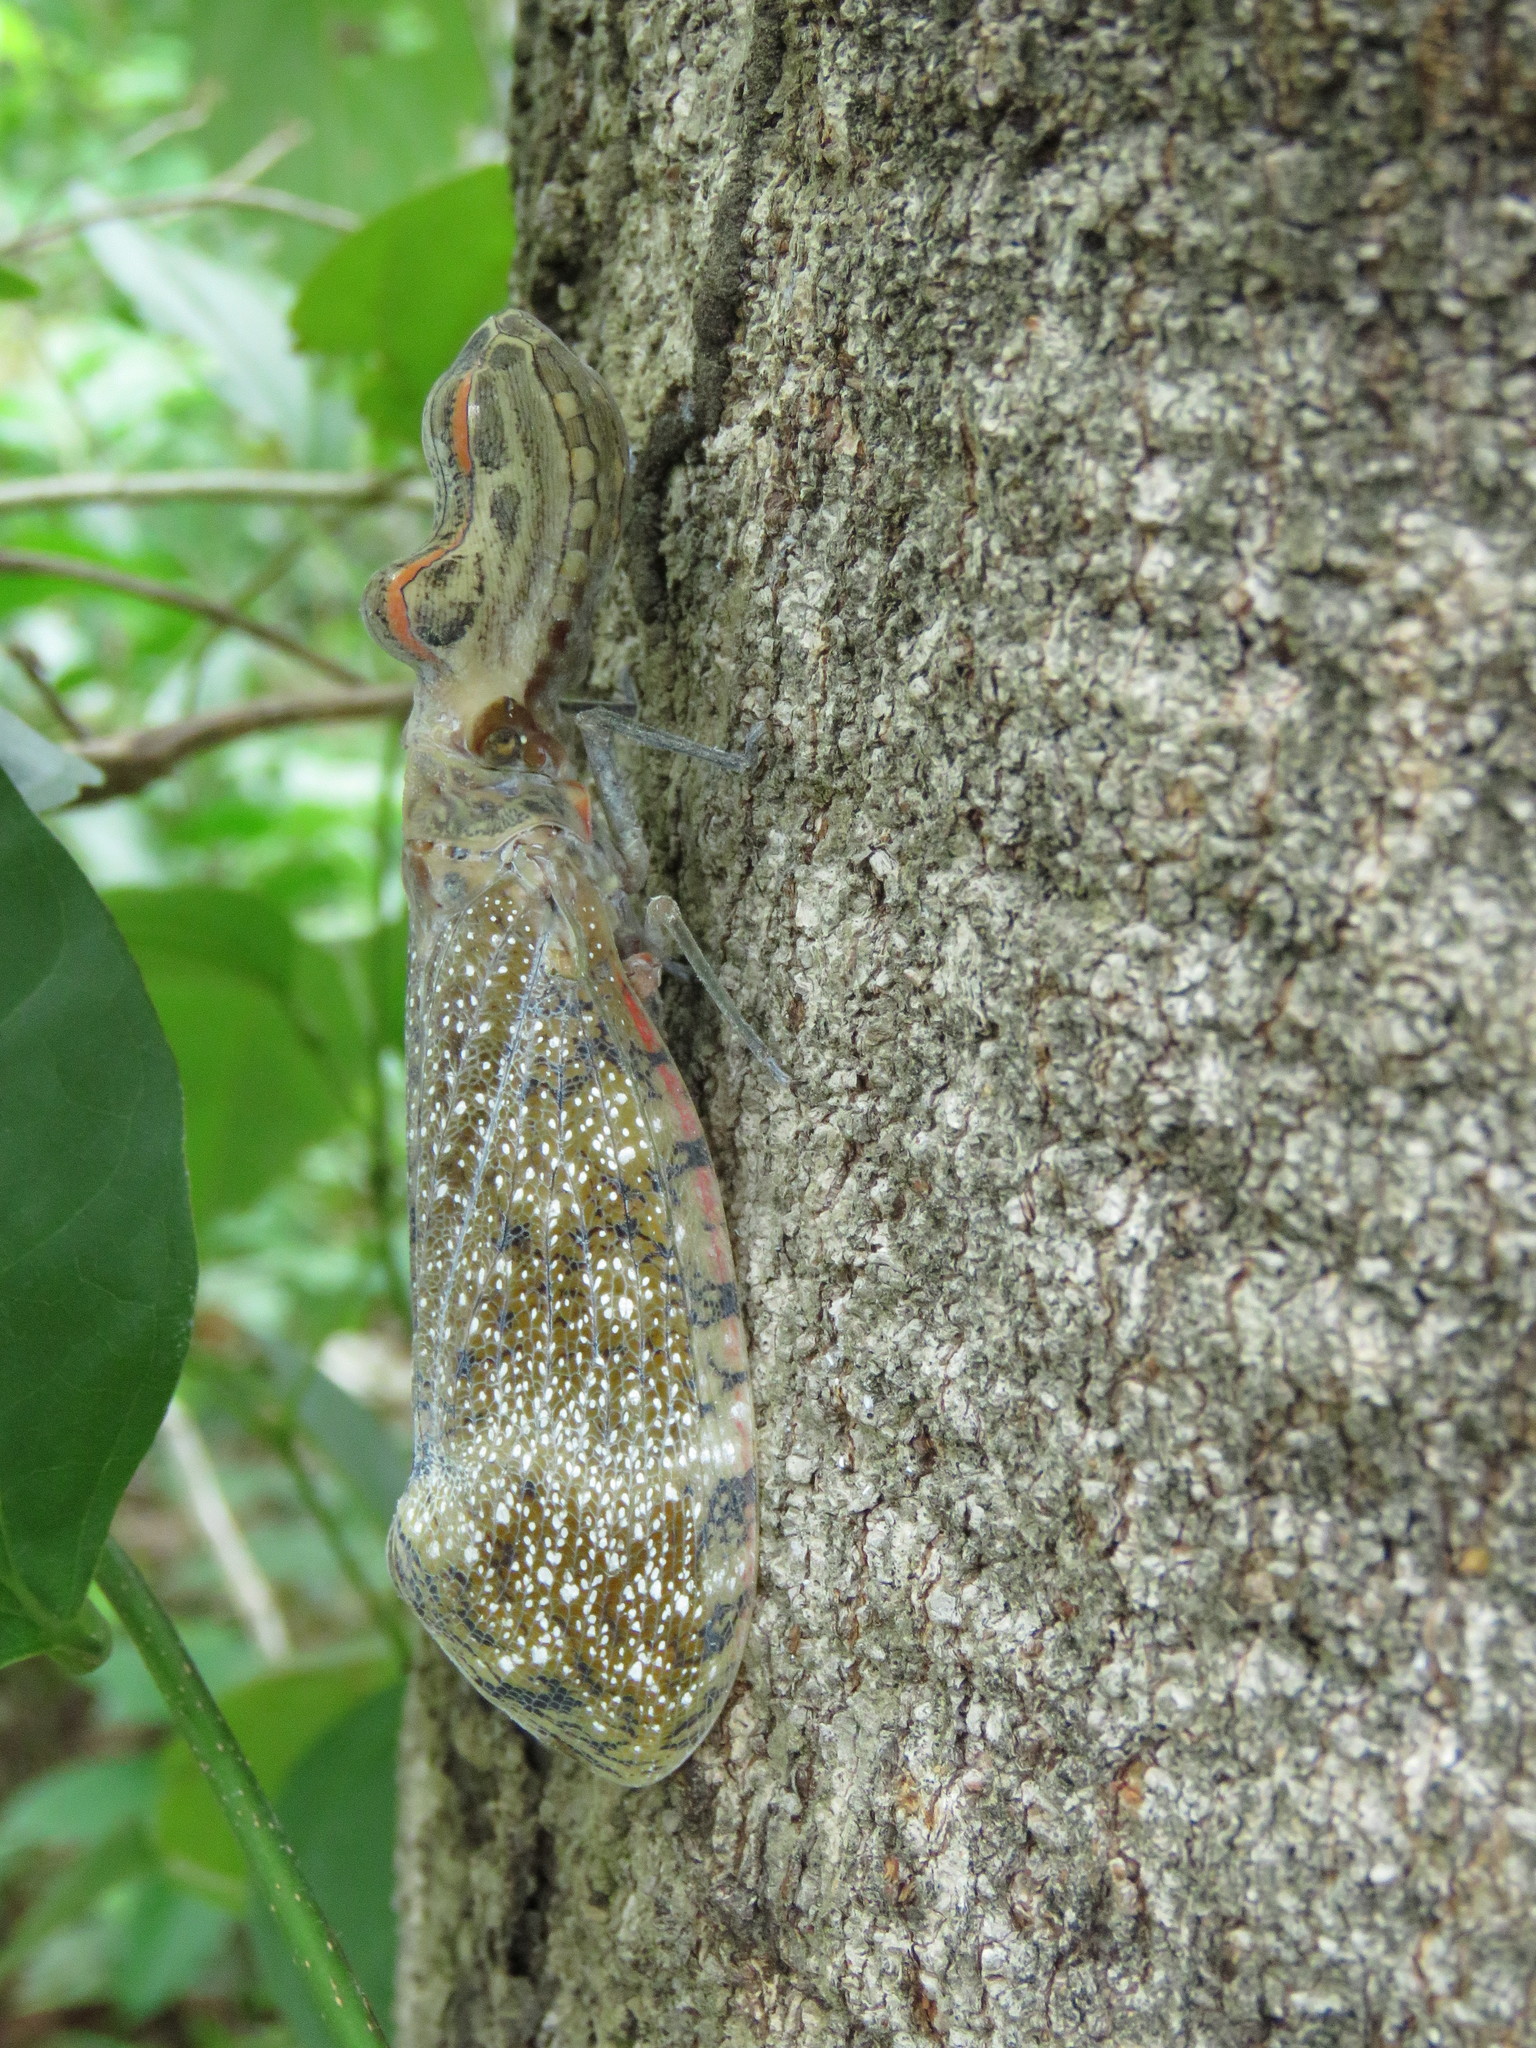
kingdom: Animalia
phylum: Arthropoda
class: Insecta
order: Hemiptera
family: Fulgoridae
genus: Fulgora
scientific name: Fulgora lampetis
